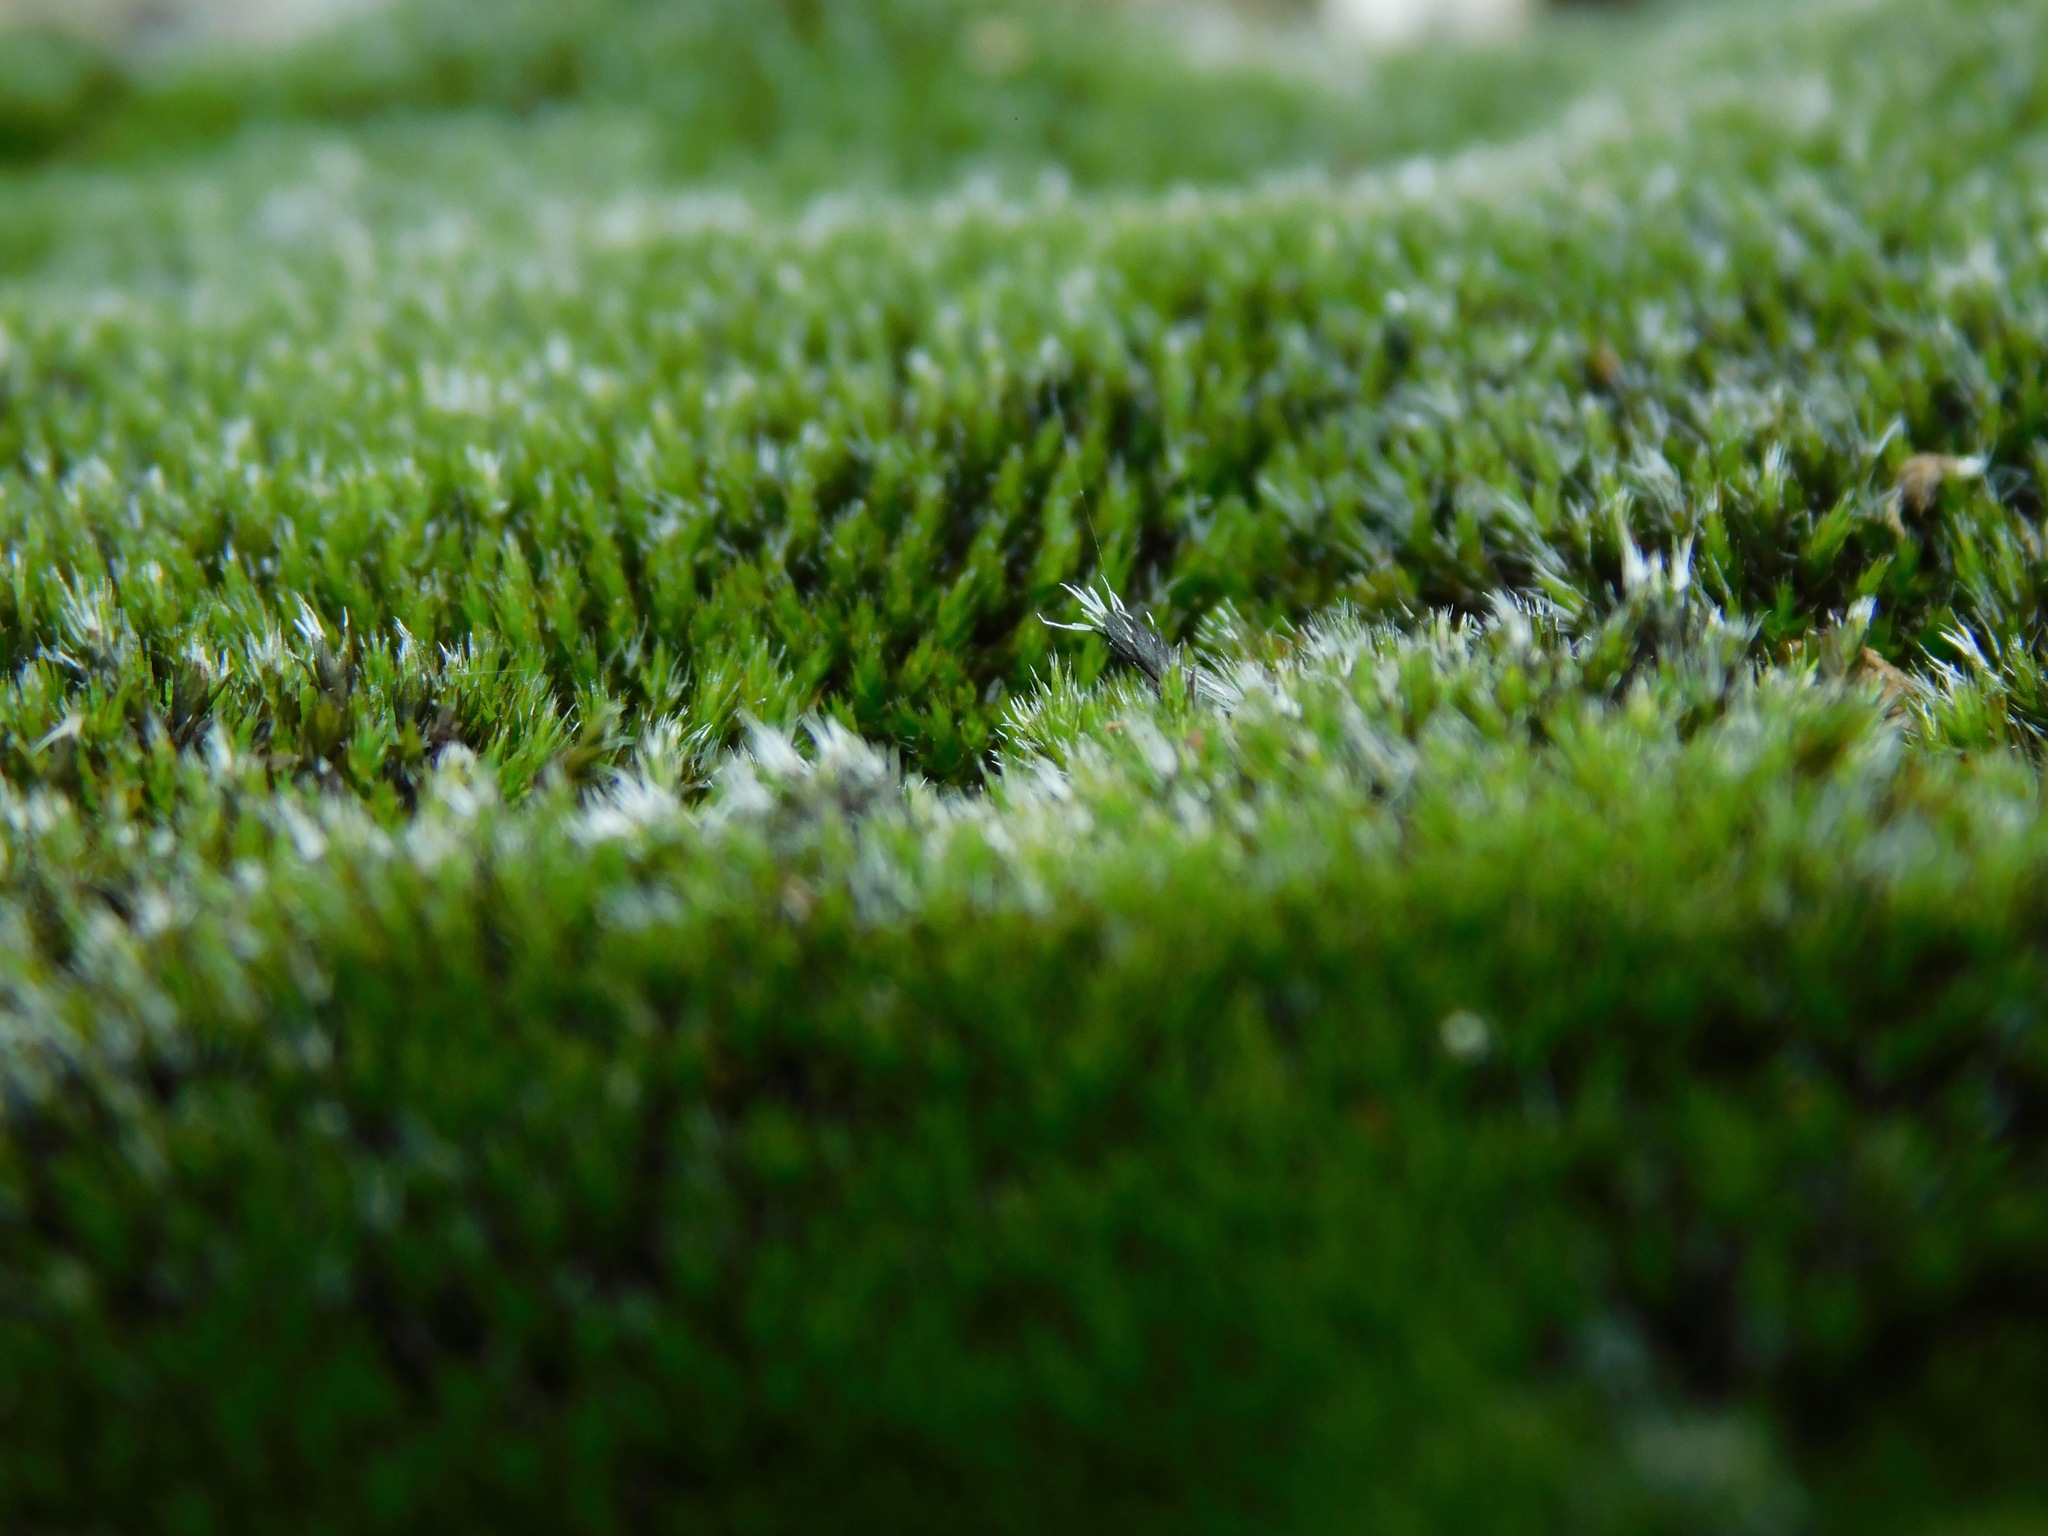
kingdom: Plantae
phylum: Bryophyta
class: Bryopsida
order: Grimmiales
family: Grimmiaceae
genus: Grimmia
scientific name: Grimmia laevigata
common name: Hoary grimmia
